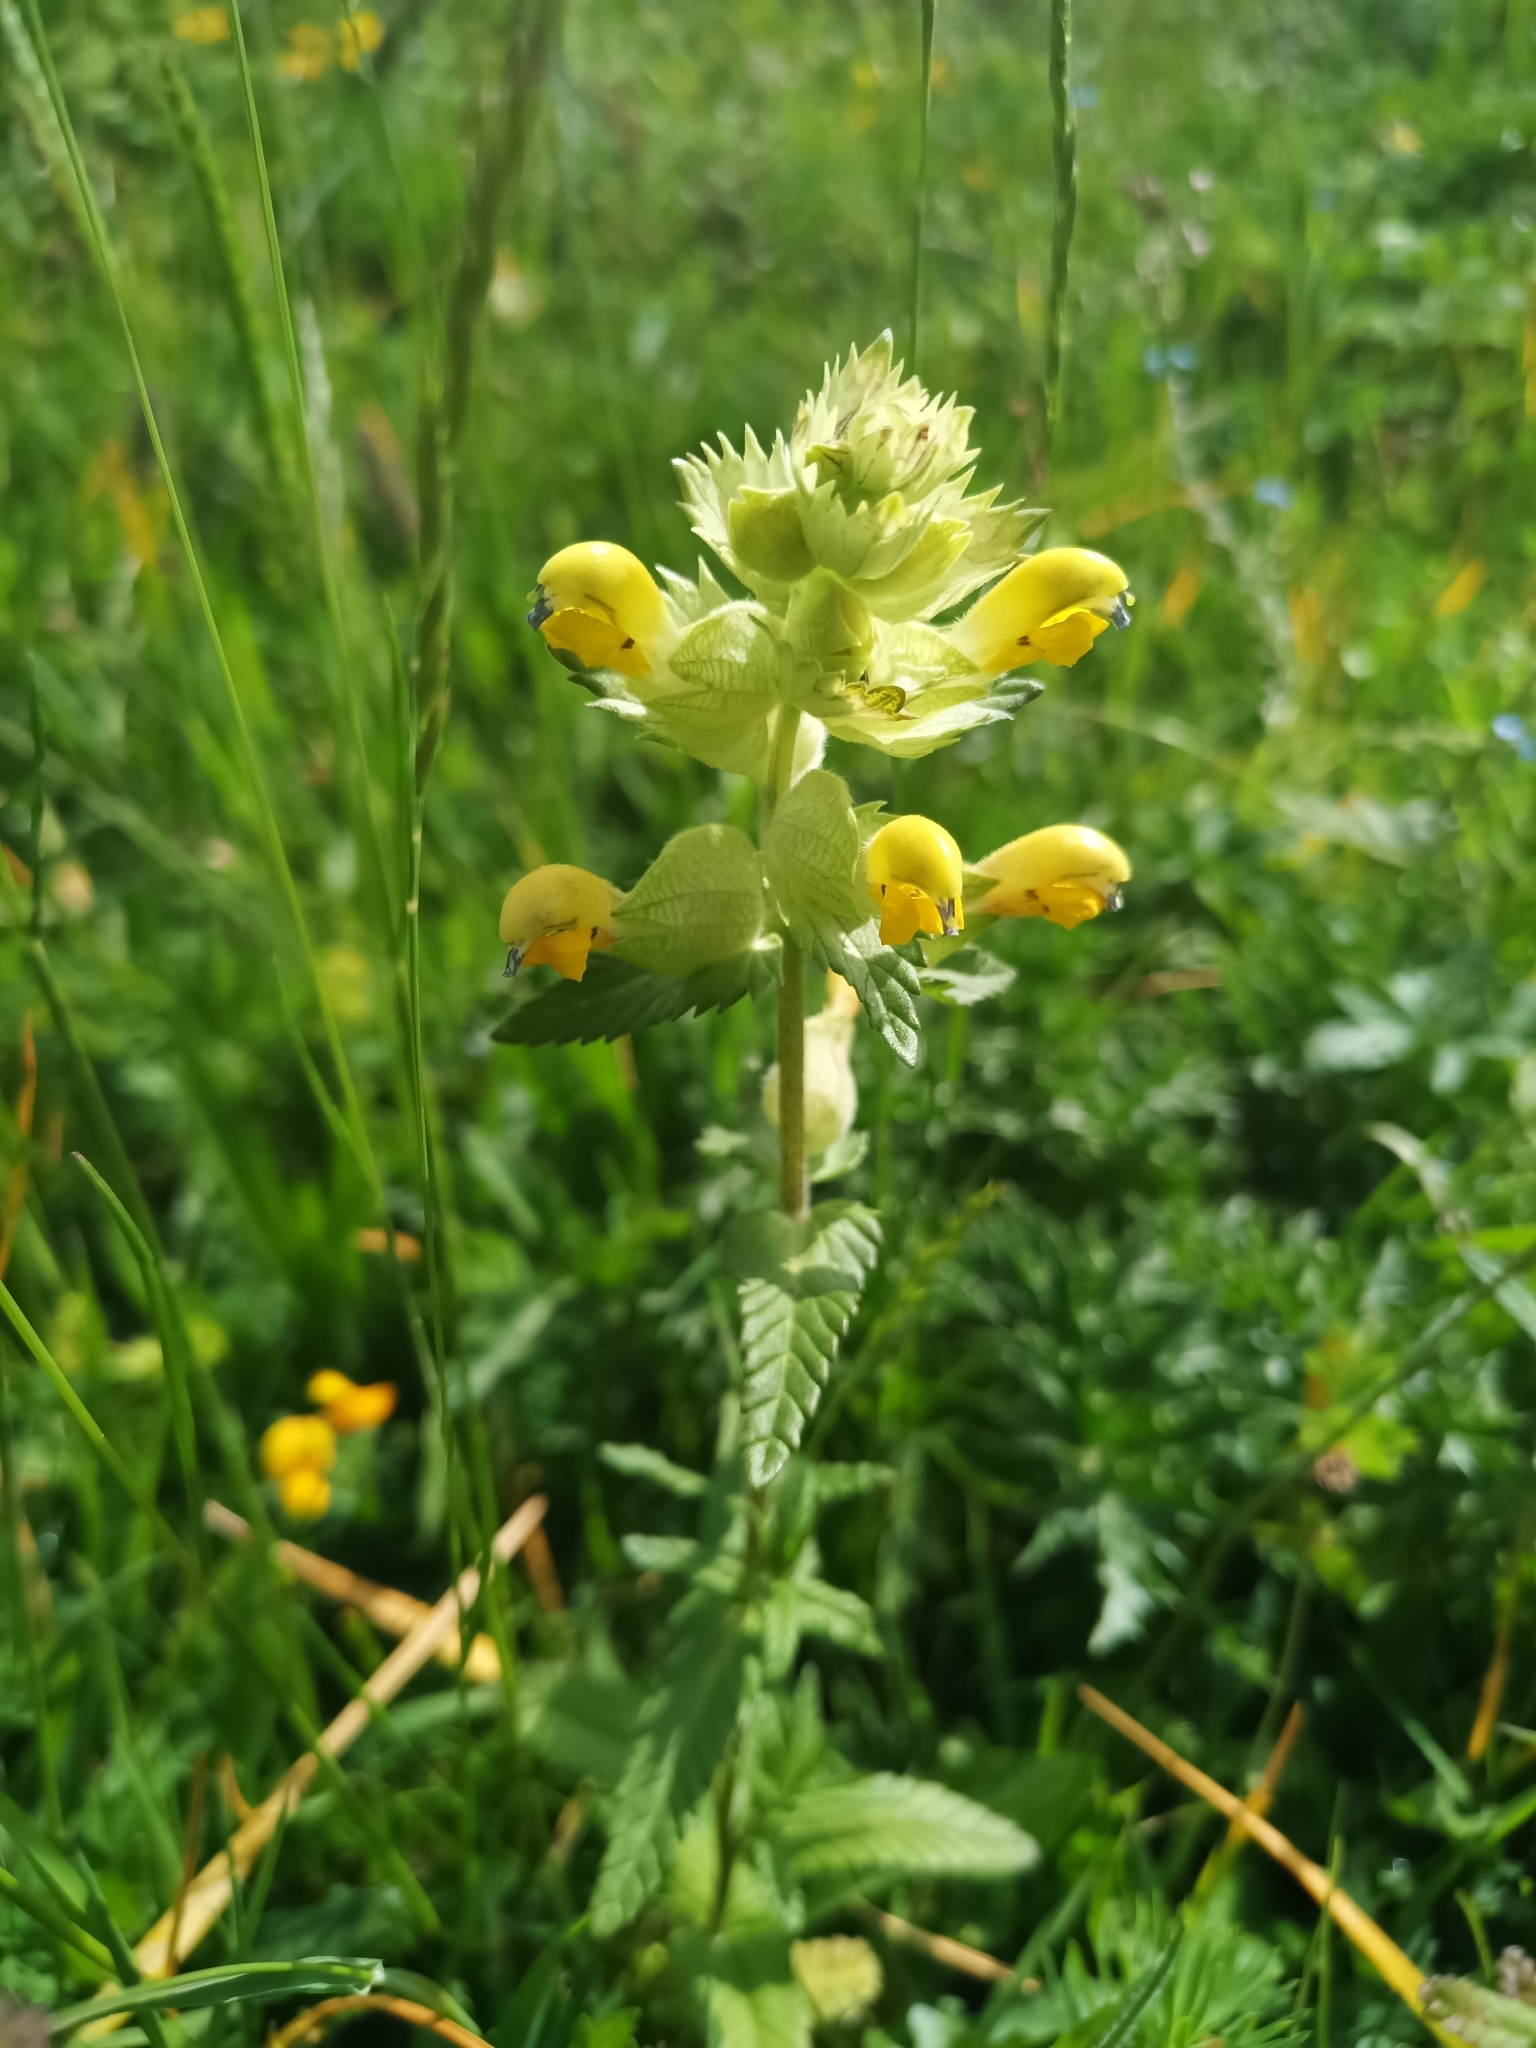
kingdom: Plantae
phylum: Tracheophyta
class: Magnoliopsida
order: Lamiales
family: Orobanchaceae
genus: Rhinanthus
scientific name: Rhinanthus alectorolophus
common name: Greater yellow-rattle
